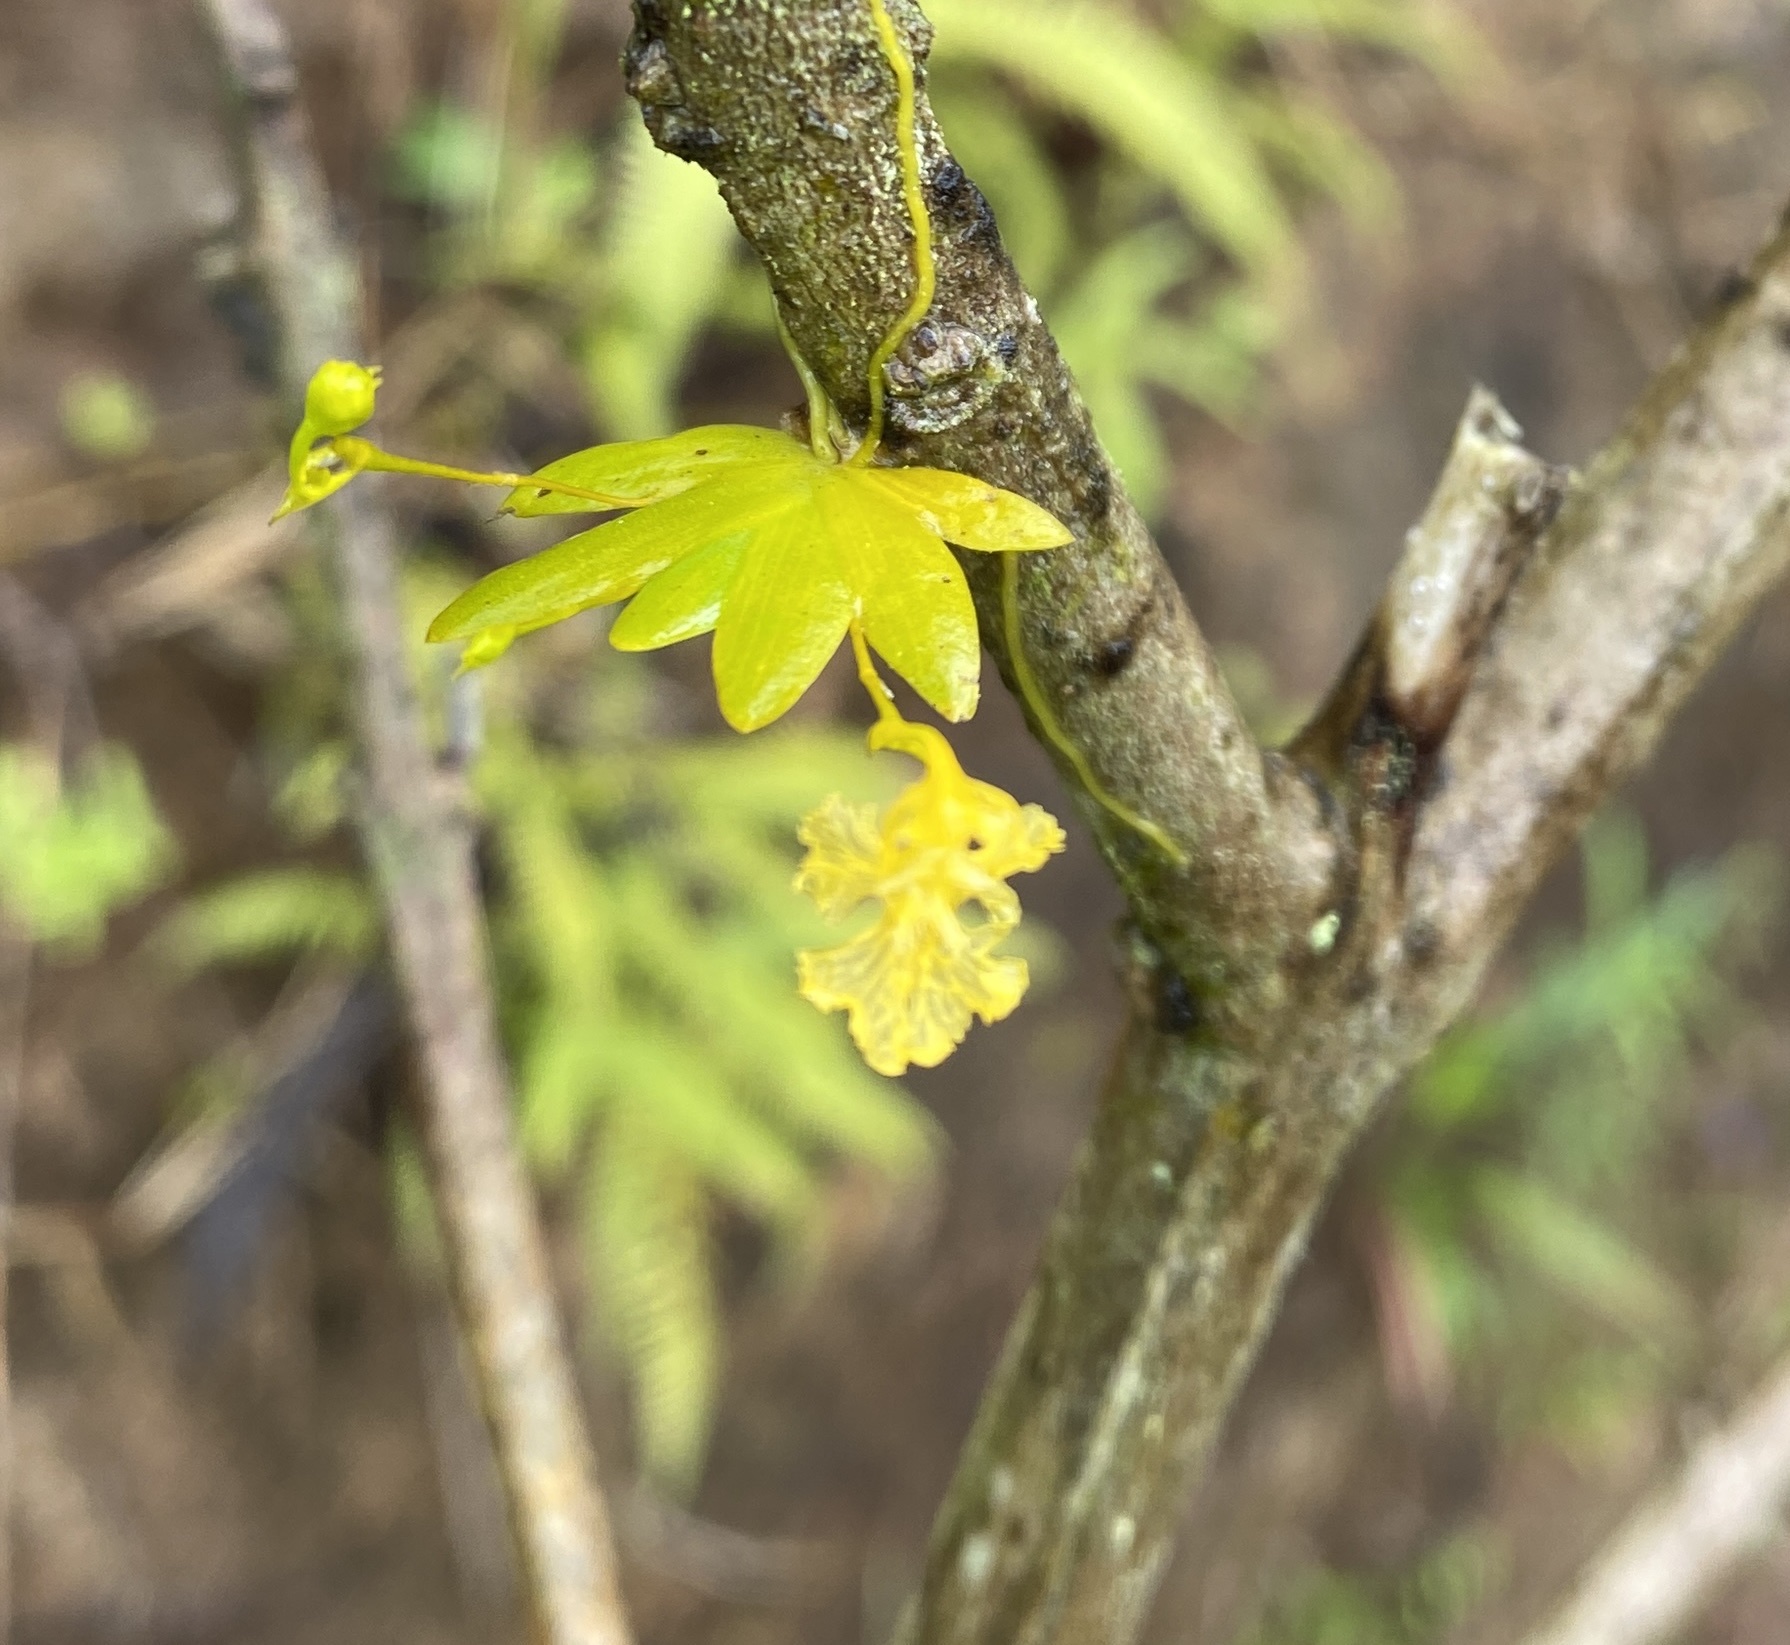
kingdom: Plantae
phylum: Tracheophyta
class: Liliopsida
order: Asparagales
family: Orchidaceae
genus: Erycina
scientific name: Erycina pumilio
